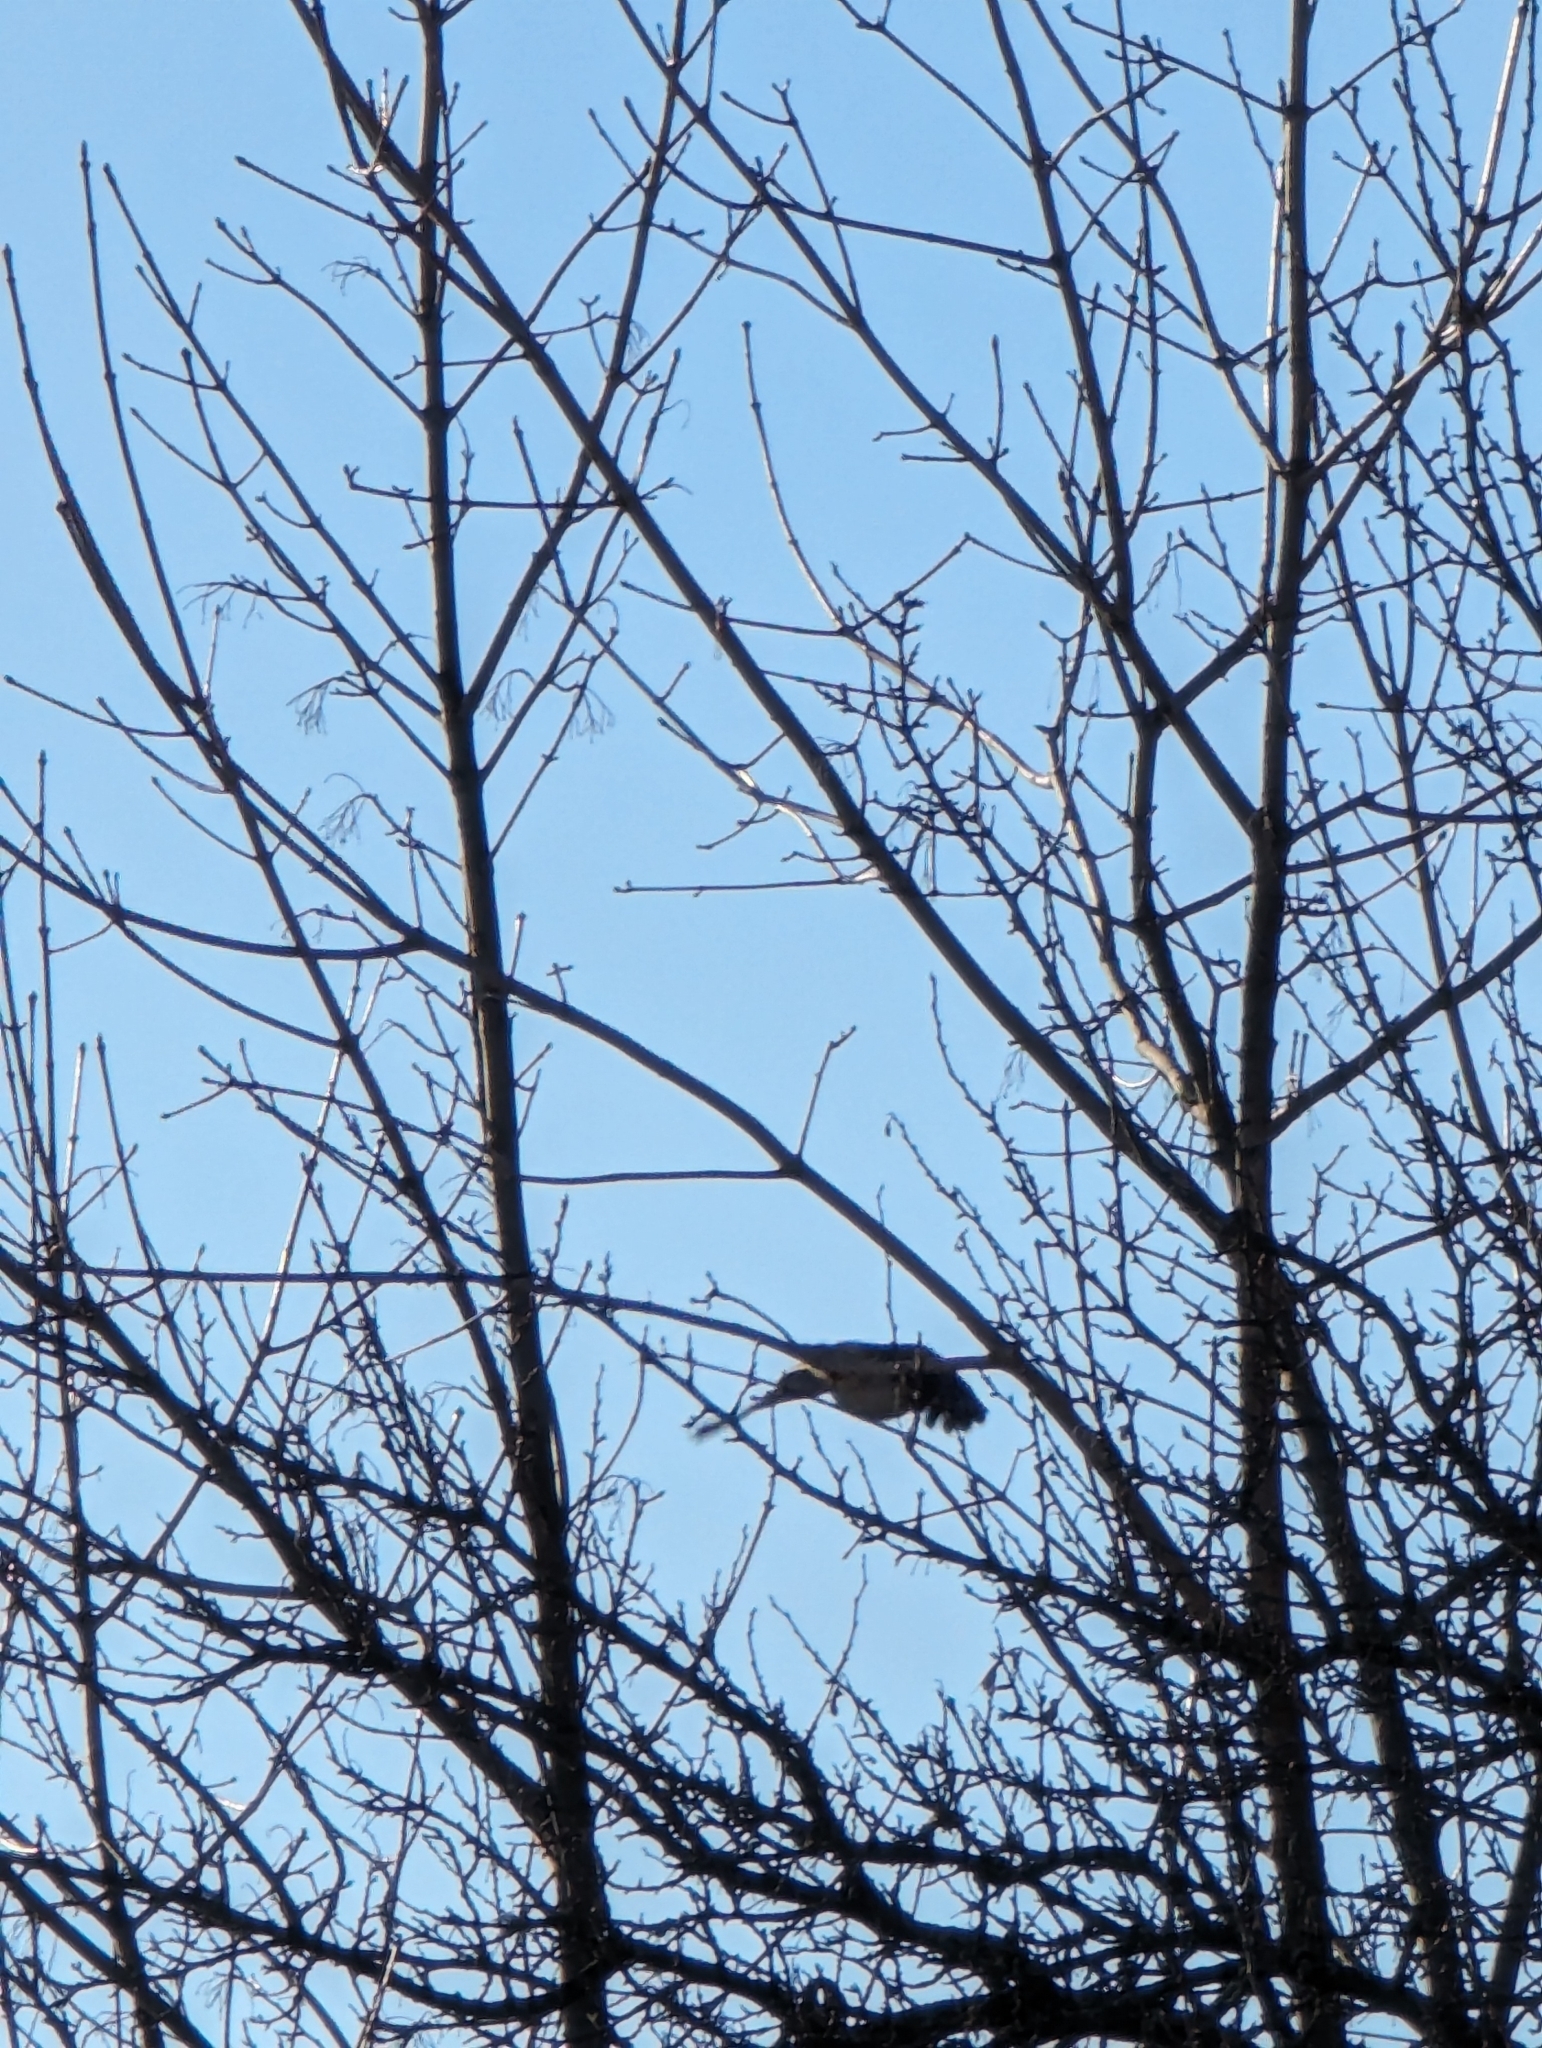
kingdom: Animalia
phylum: Chordata
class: Aves
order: Accipitriformes
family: Accipitridae
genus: Accipiter
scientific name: Accipiter nisus
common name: Eurasian sparrowhawk
